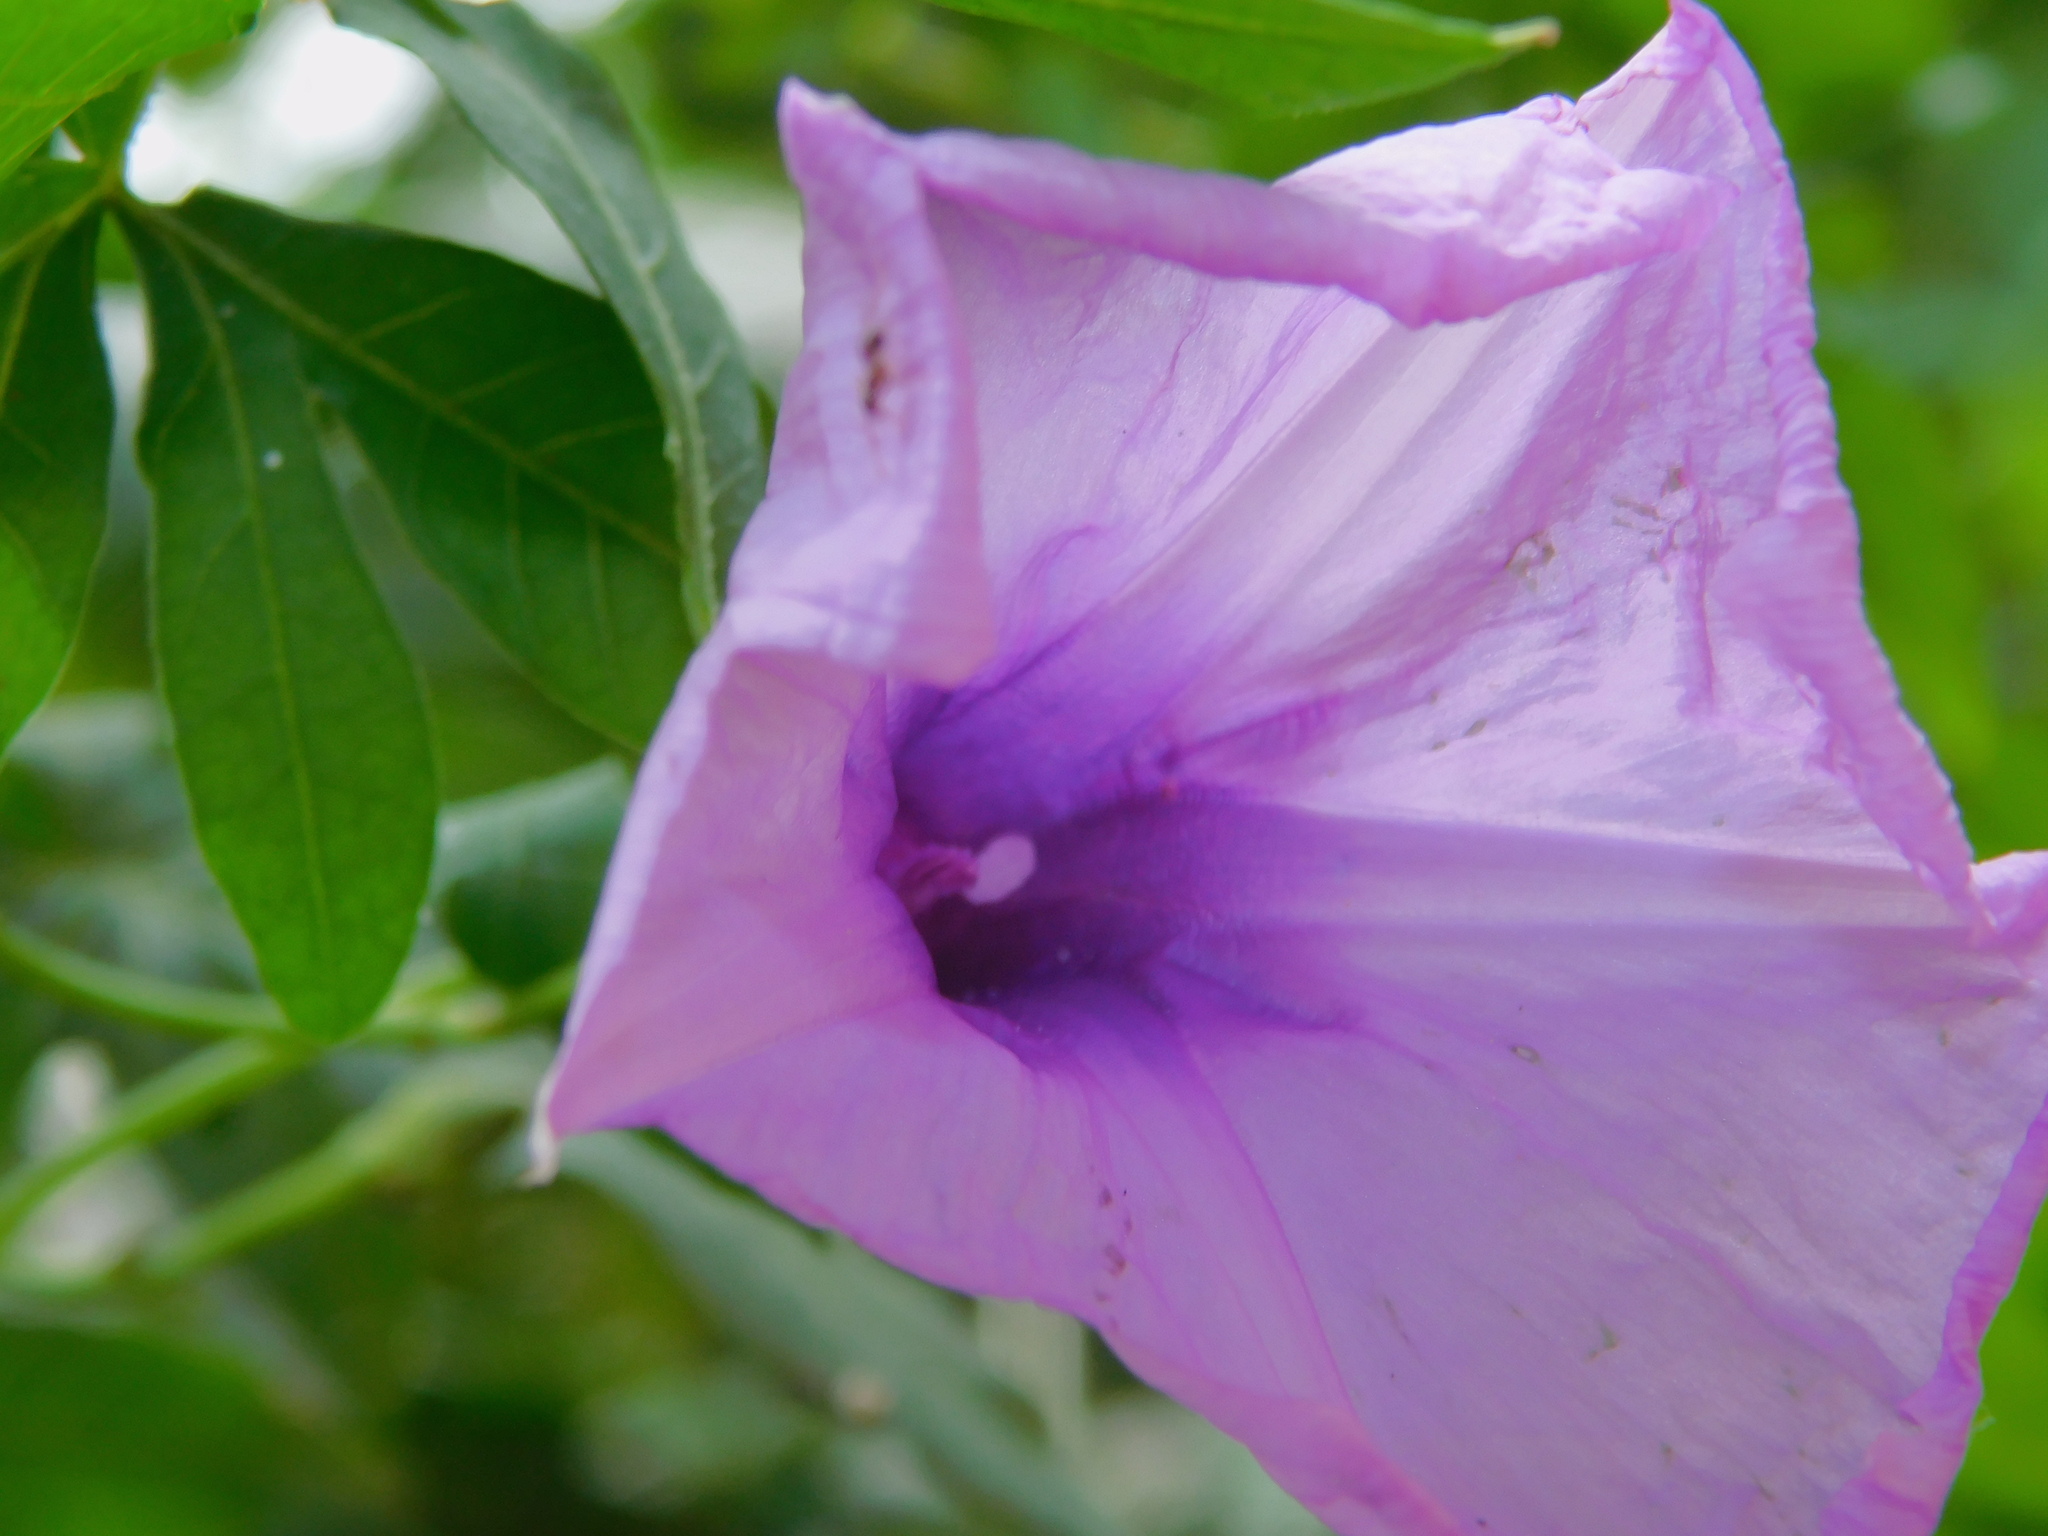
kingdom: Plantae
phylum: Tracheophyta
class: Magnoliopsida
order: Solanales
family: Convolvulaceae
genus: Ipomoea
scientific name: Ipomoea cairica
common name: Mile a minute vine
